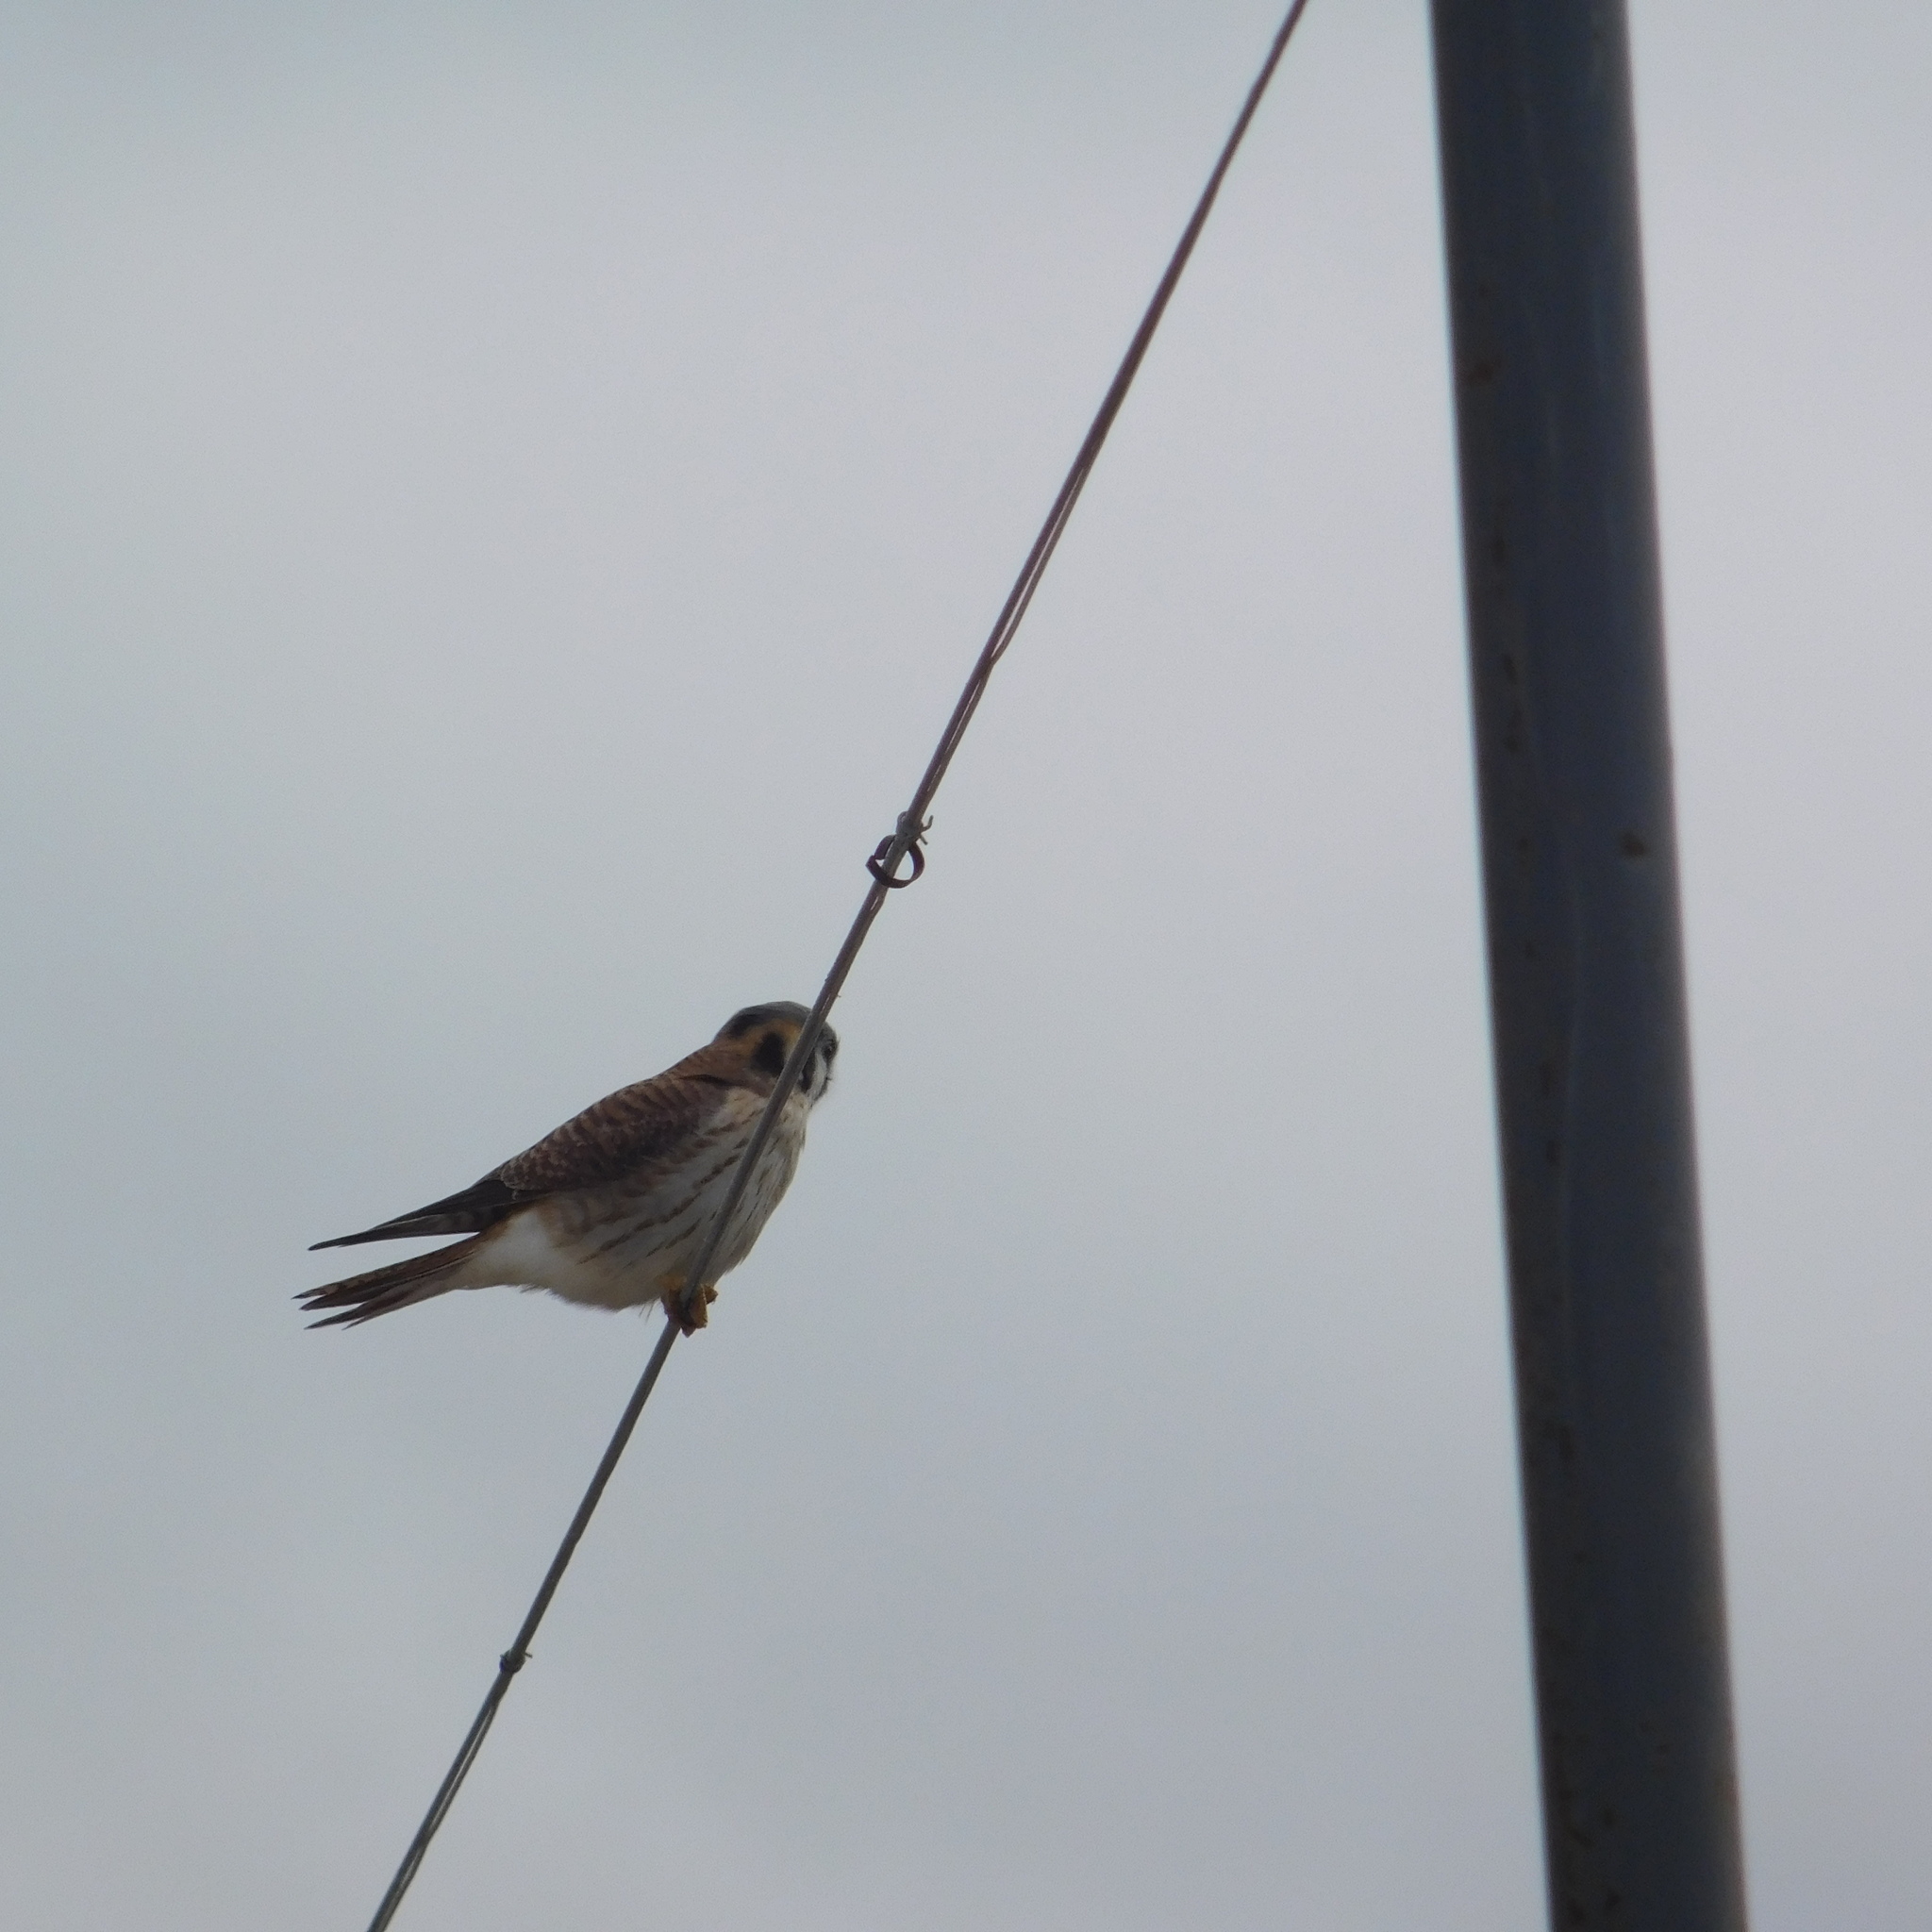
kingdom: Animalia
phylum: Chordata
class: Aves
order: Falconiformes
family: Falconidae
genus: Falco
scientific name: Falco sparverius
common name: American kestrel
